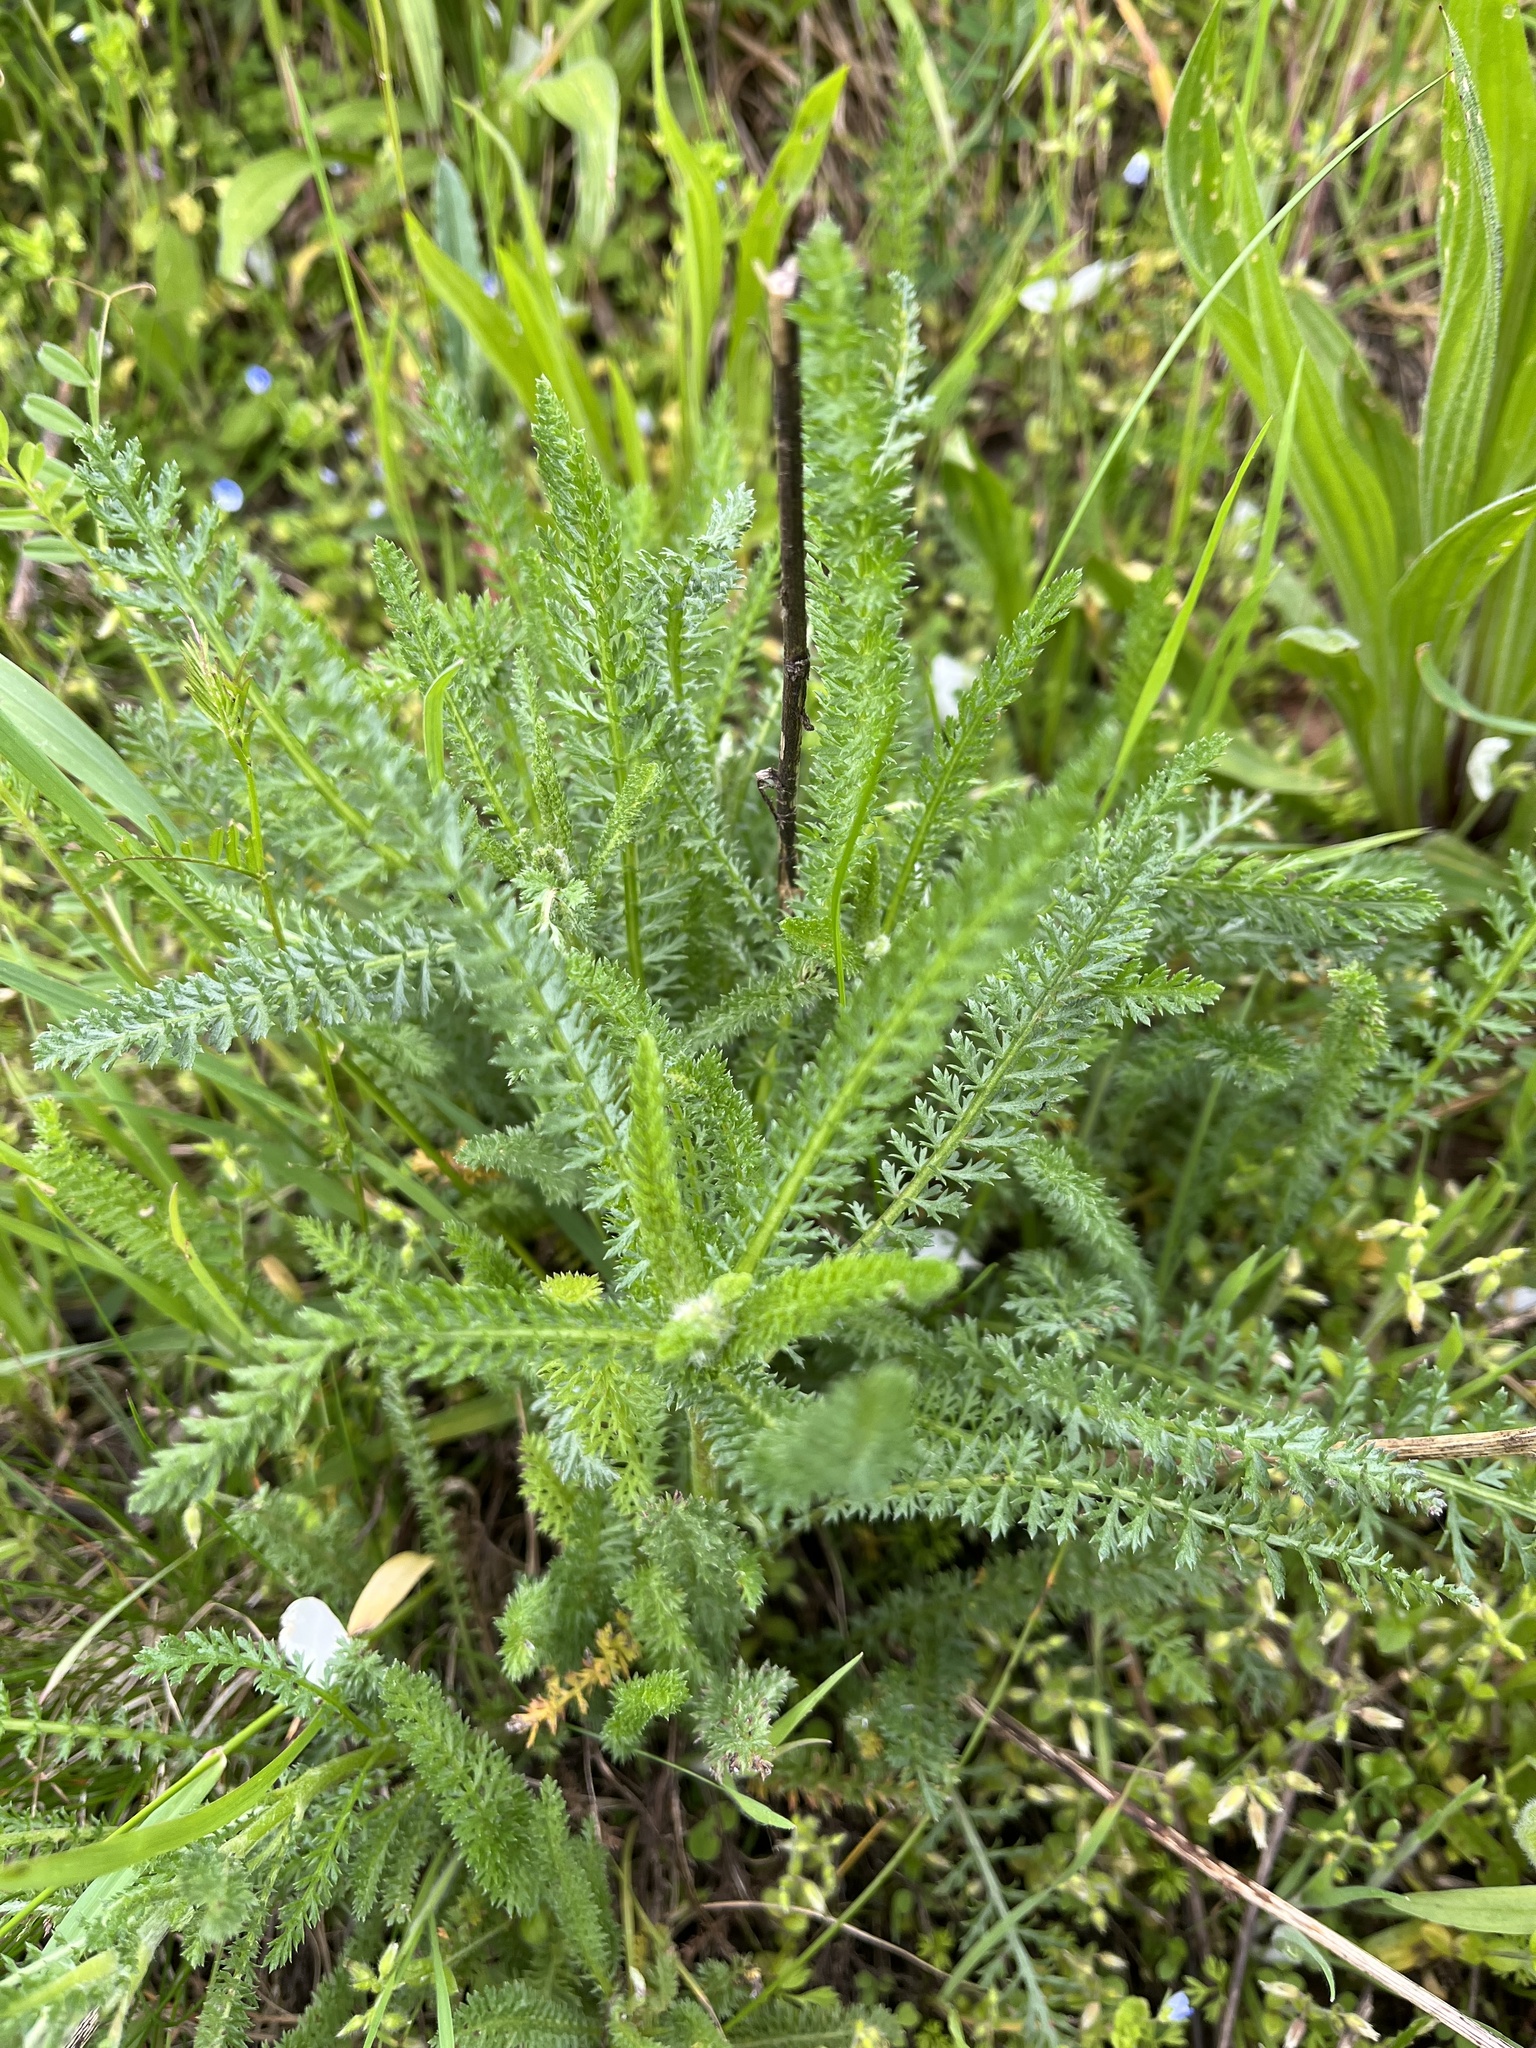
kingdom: Plantae
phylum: Tracheophyta
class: Magnoliopsida
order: Asterales
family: Asteraceae
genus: Achillea
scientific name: Achillea millefolium
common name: Yarrow
